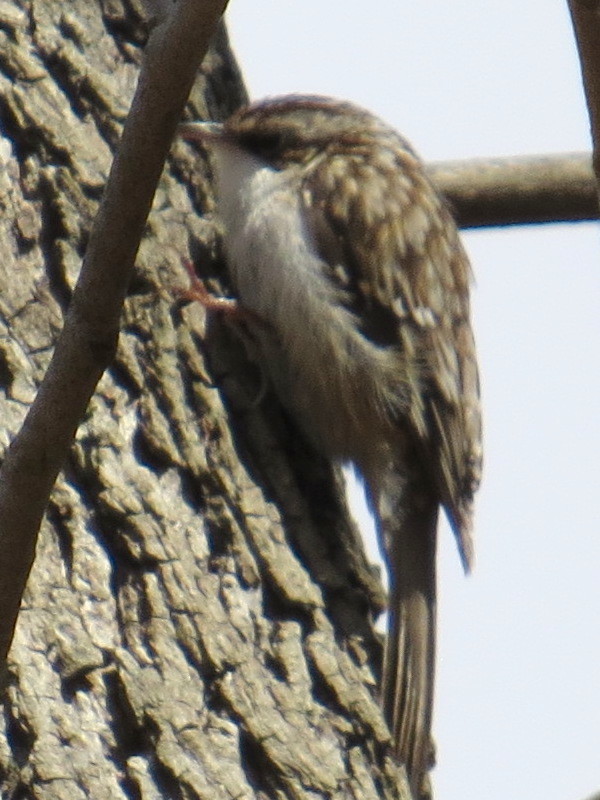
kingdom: Animalia
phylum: Chordata
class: Aves
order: Passeriformes
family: Certhiidae
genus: Certhia
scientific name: Certhia americana
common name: Brown creeper
